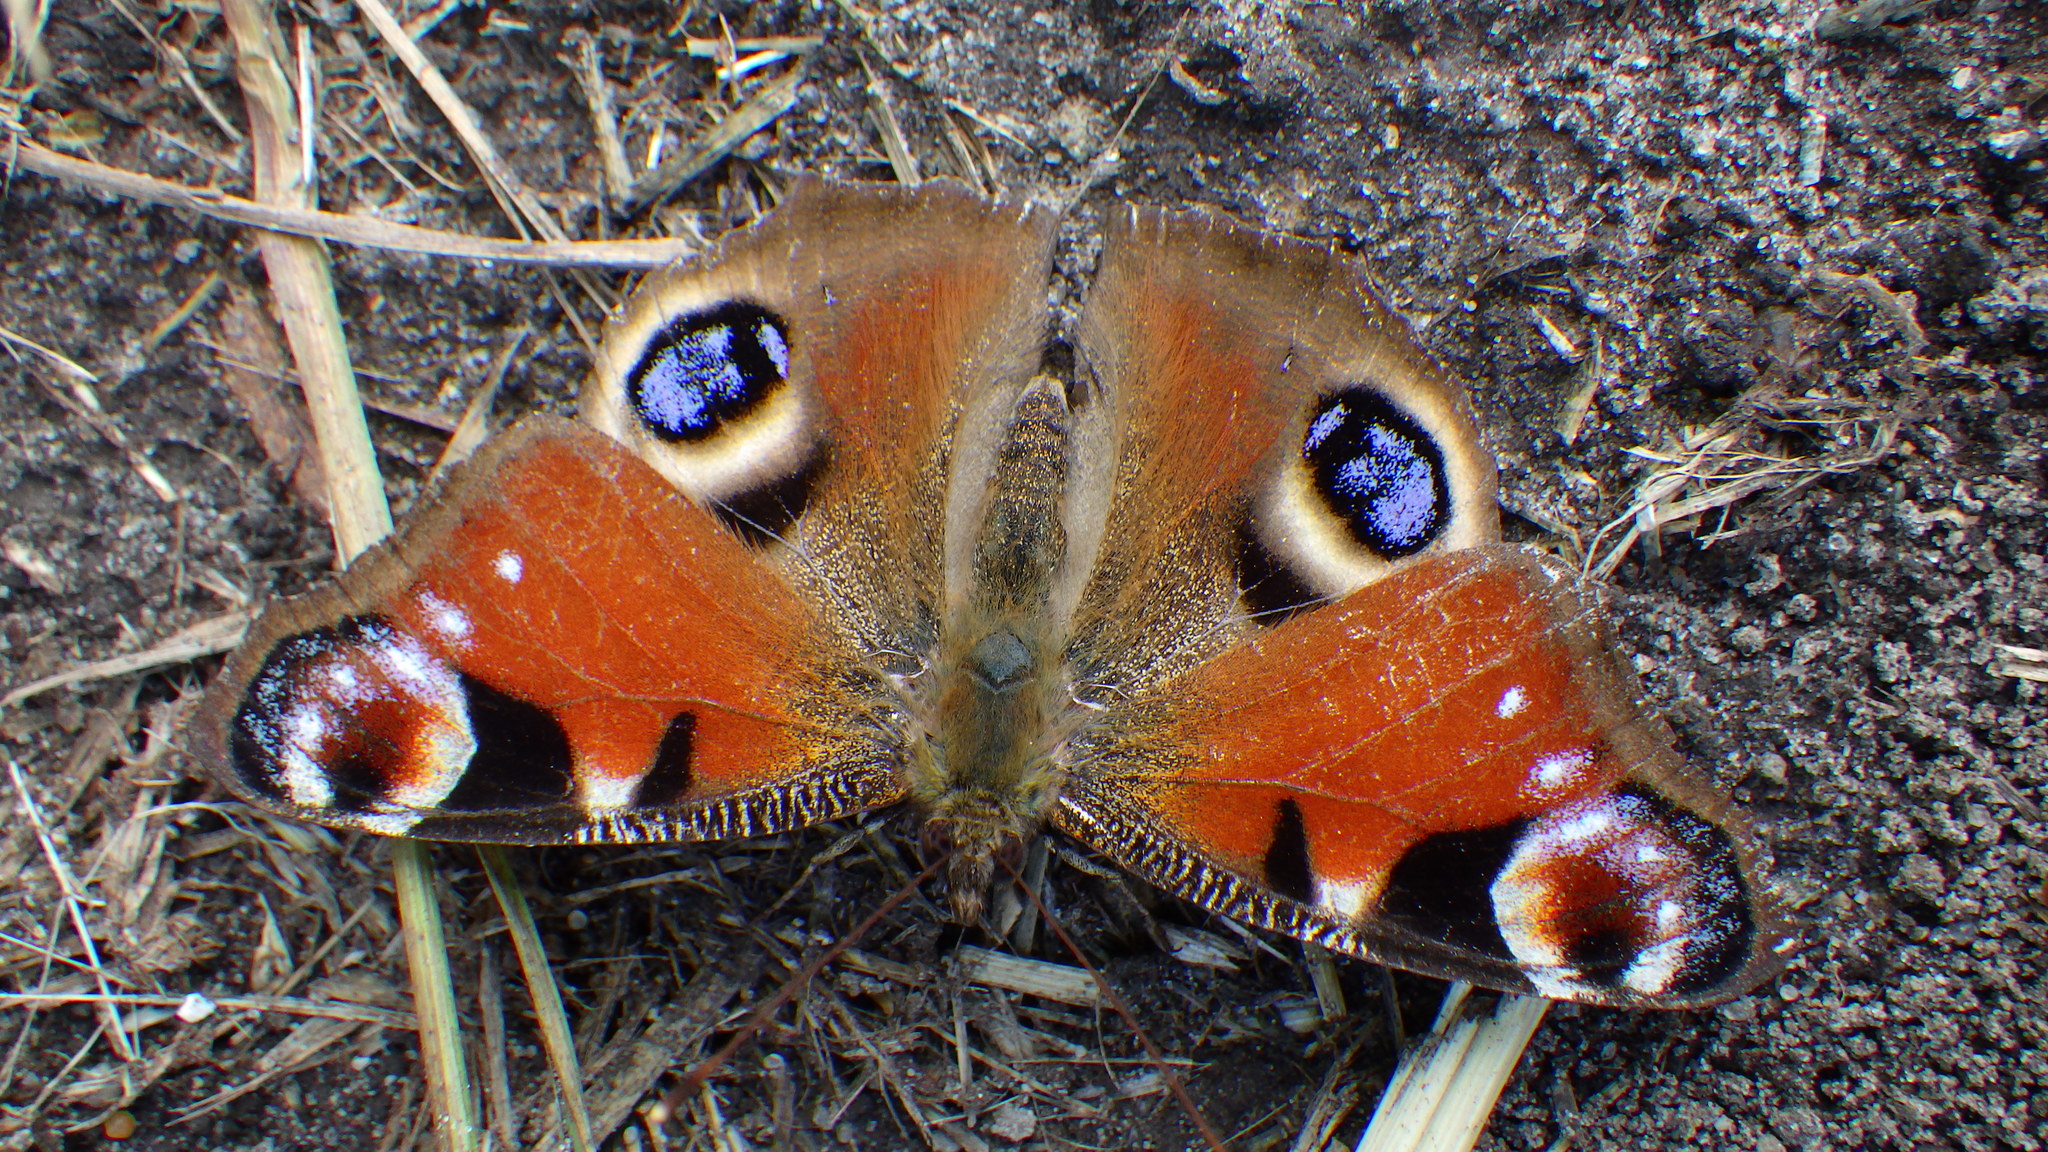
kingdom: Animalia
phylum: Arthropoda
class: Insecta
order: Lepidoptera
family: Nymphalidae
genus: Aglais
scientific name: Aglais io
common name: Peacock
